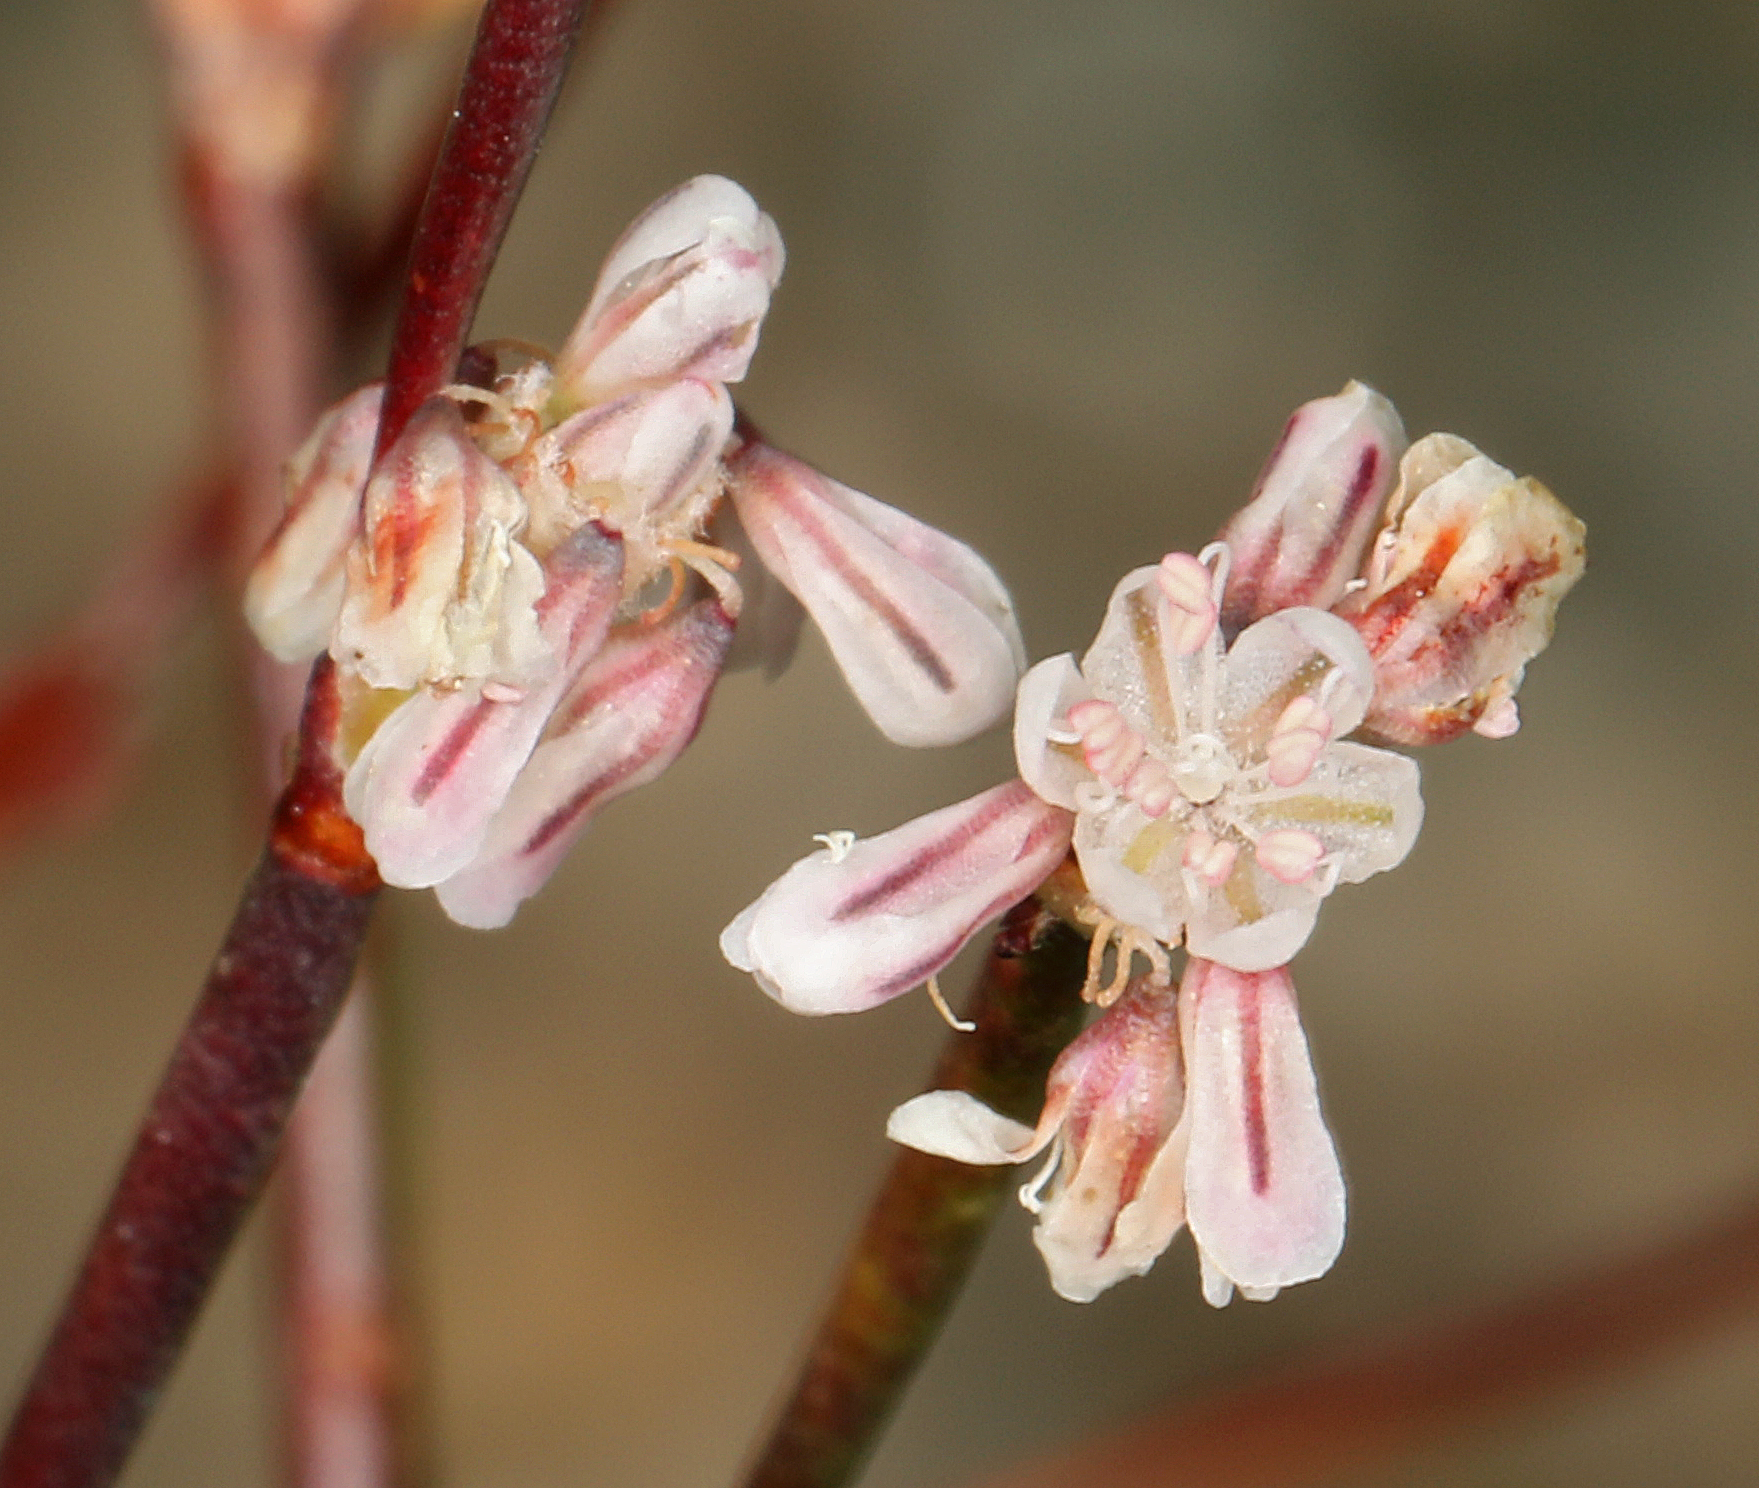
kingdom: Plantae
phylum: Tracheophyta
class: Magnoliopsida
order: Caryophyllales
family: Polygonaceae
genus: Eriogonum
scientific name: Eriogonum baileyi
